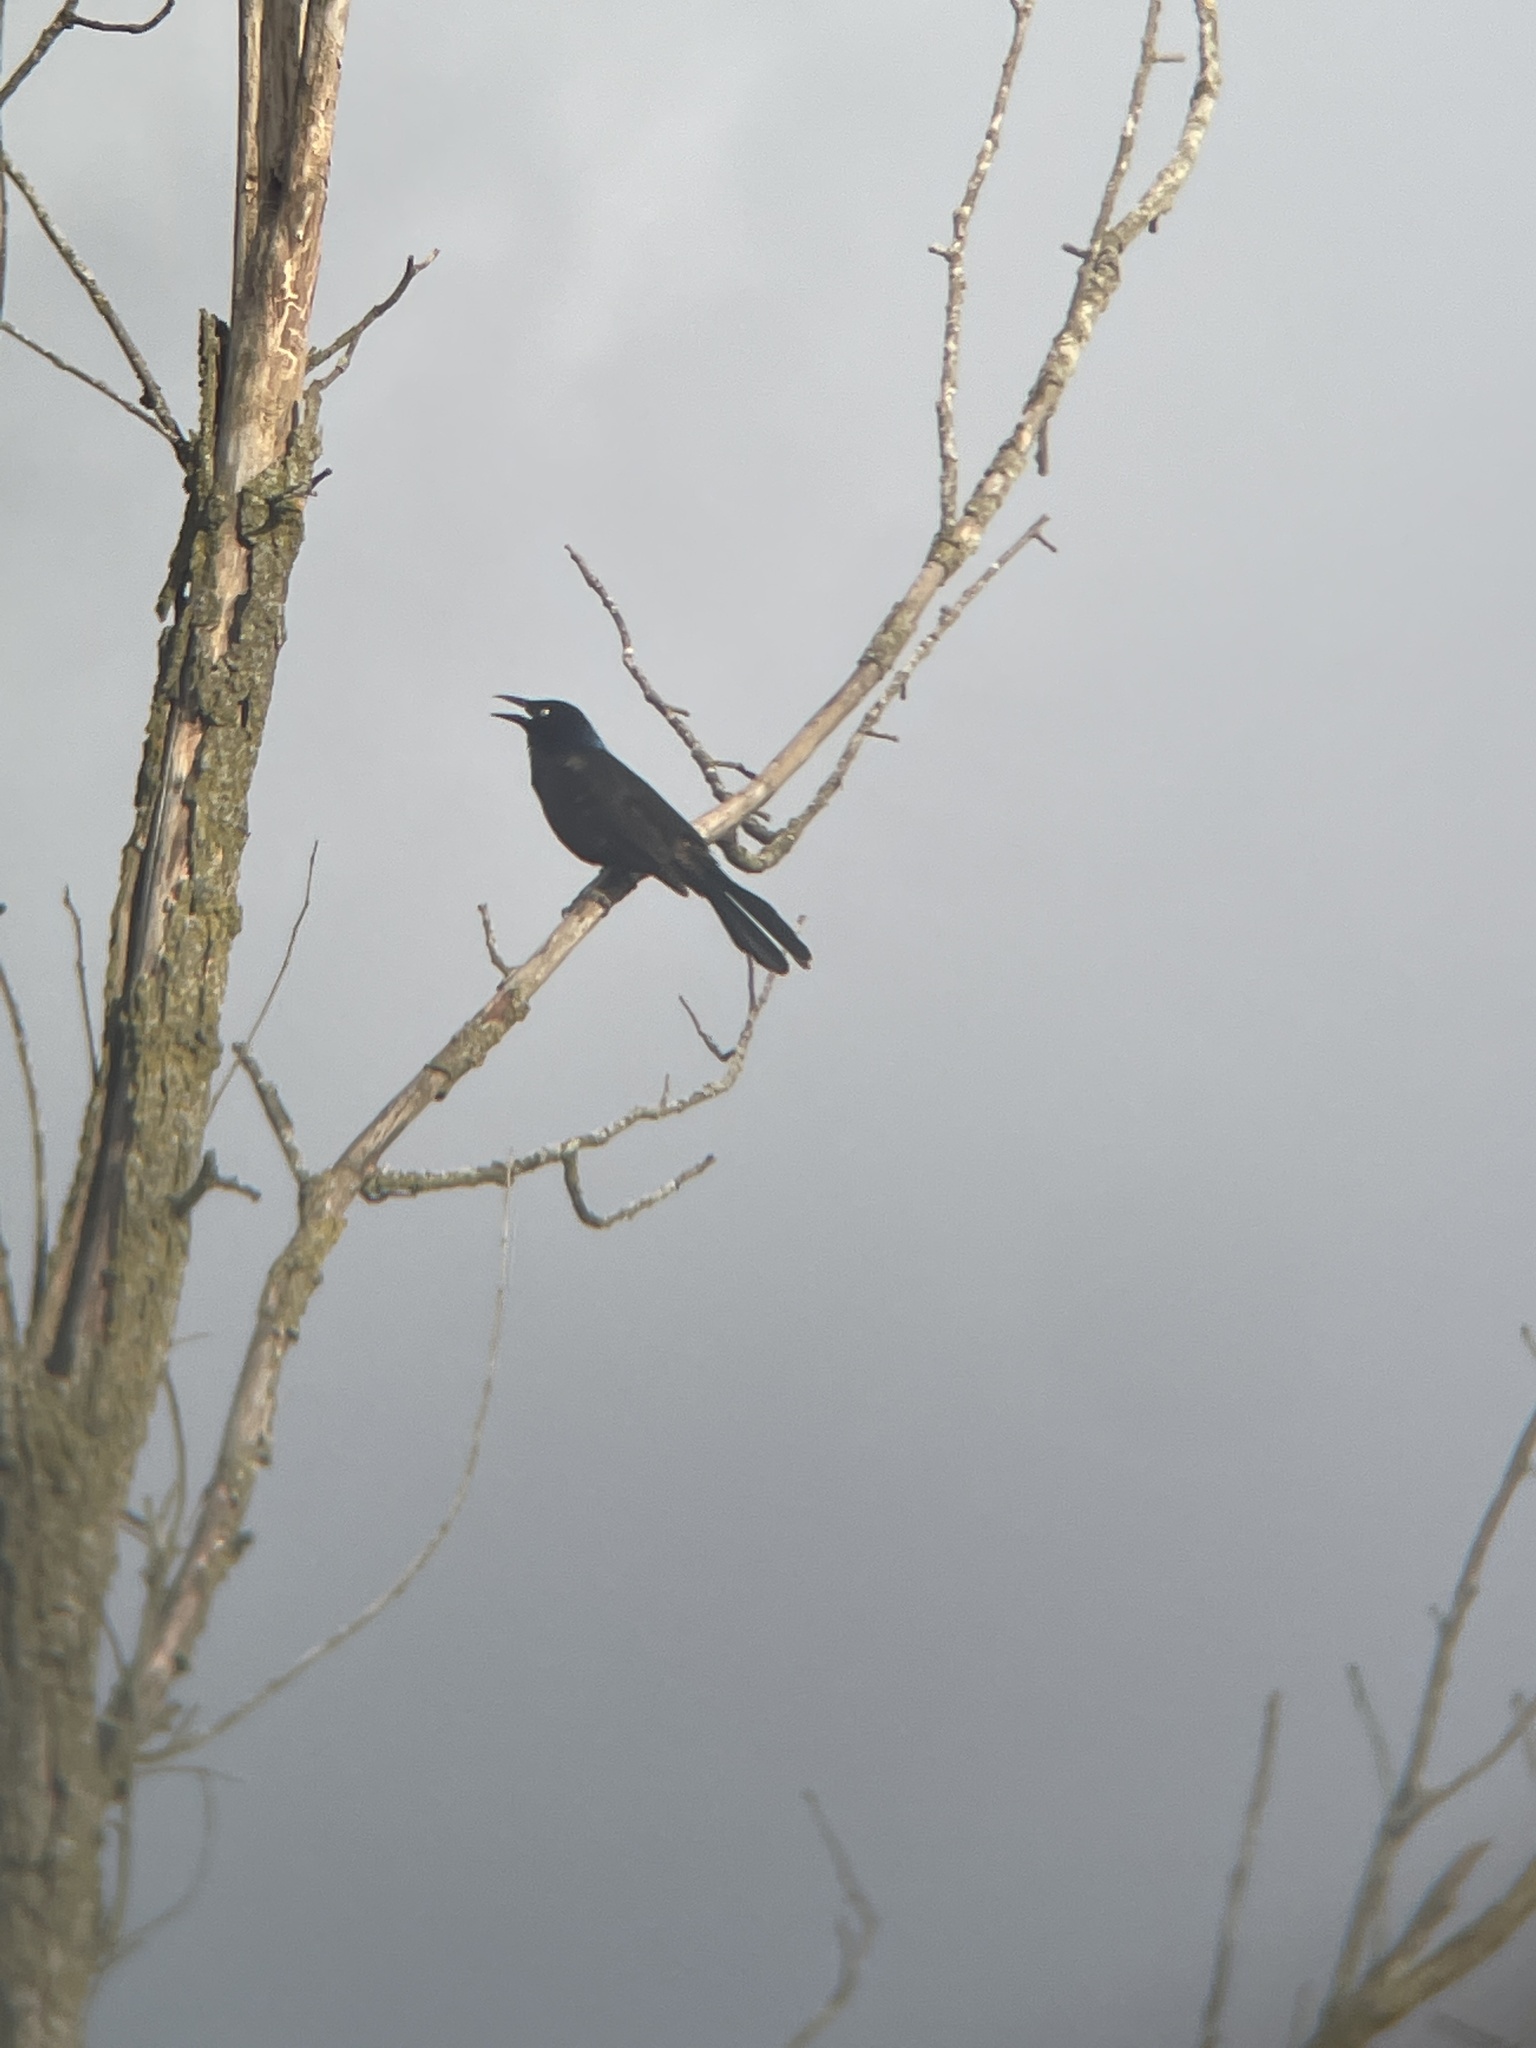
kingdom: Animalia
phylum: Chordata
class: Aves
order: Passeriformes
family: Icteridae
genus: Quiscalus
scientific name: Quiscalus quiscula
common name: Common grackle
